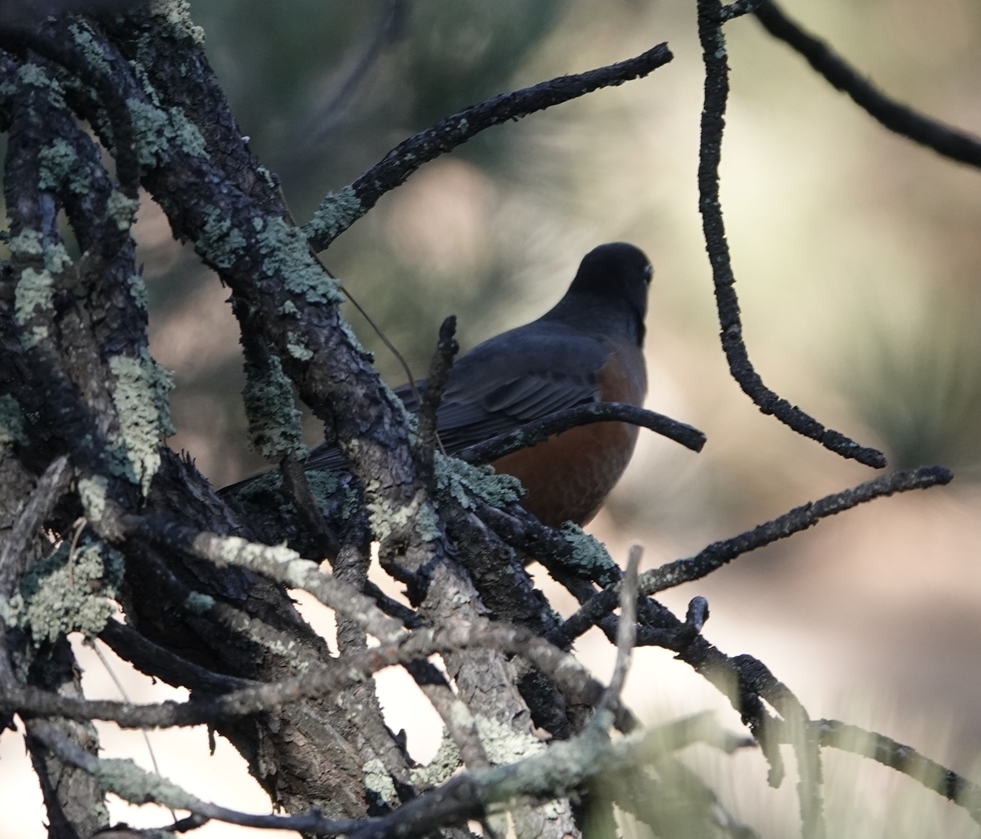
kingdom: Animalia
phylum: Chordata
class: Aves
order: Passeriformes
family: Turdidae
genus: Turdus
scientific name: Turdus migratorius
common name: American robin
